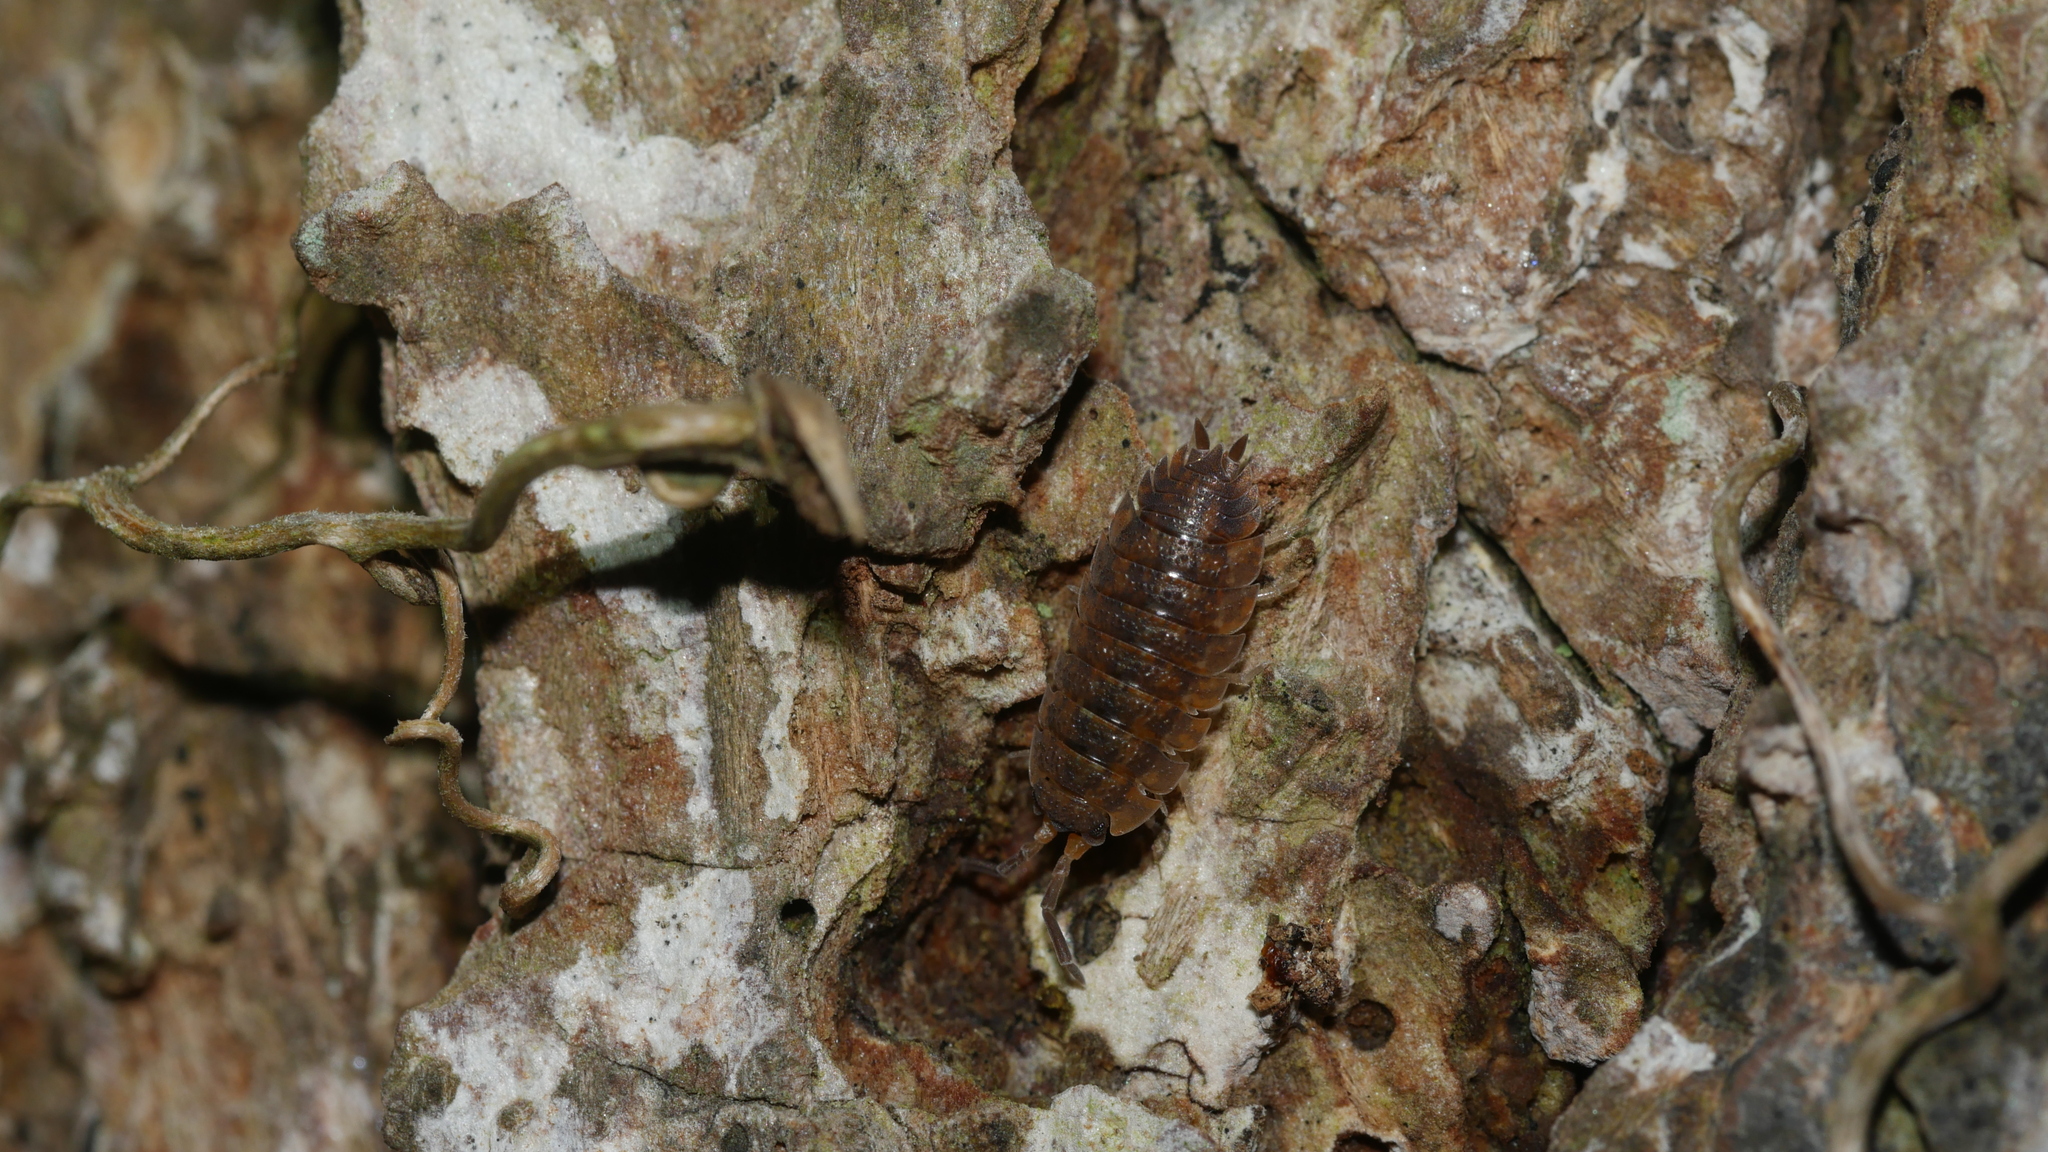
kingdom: Animalia
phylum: Arthropoda
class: Malacostraca
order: Isopoda
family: Porcellionidae
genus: Porcellio
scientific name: Porcellio scaber
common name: Common rough woodlouse
